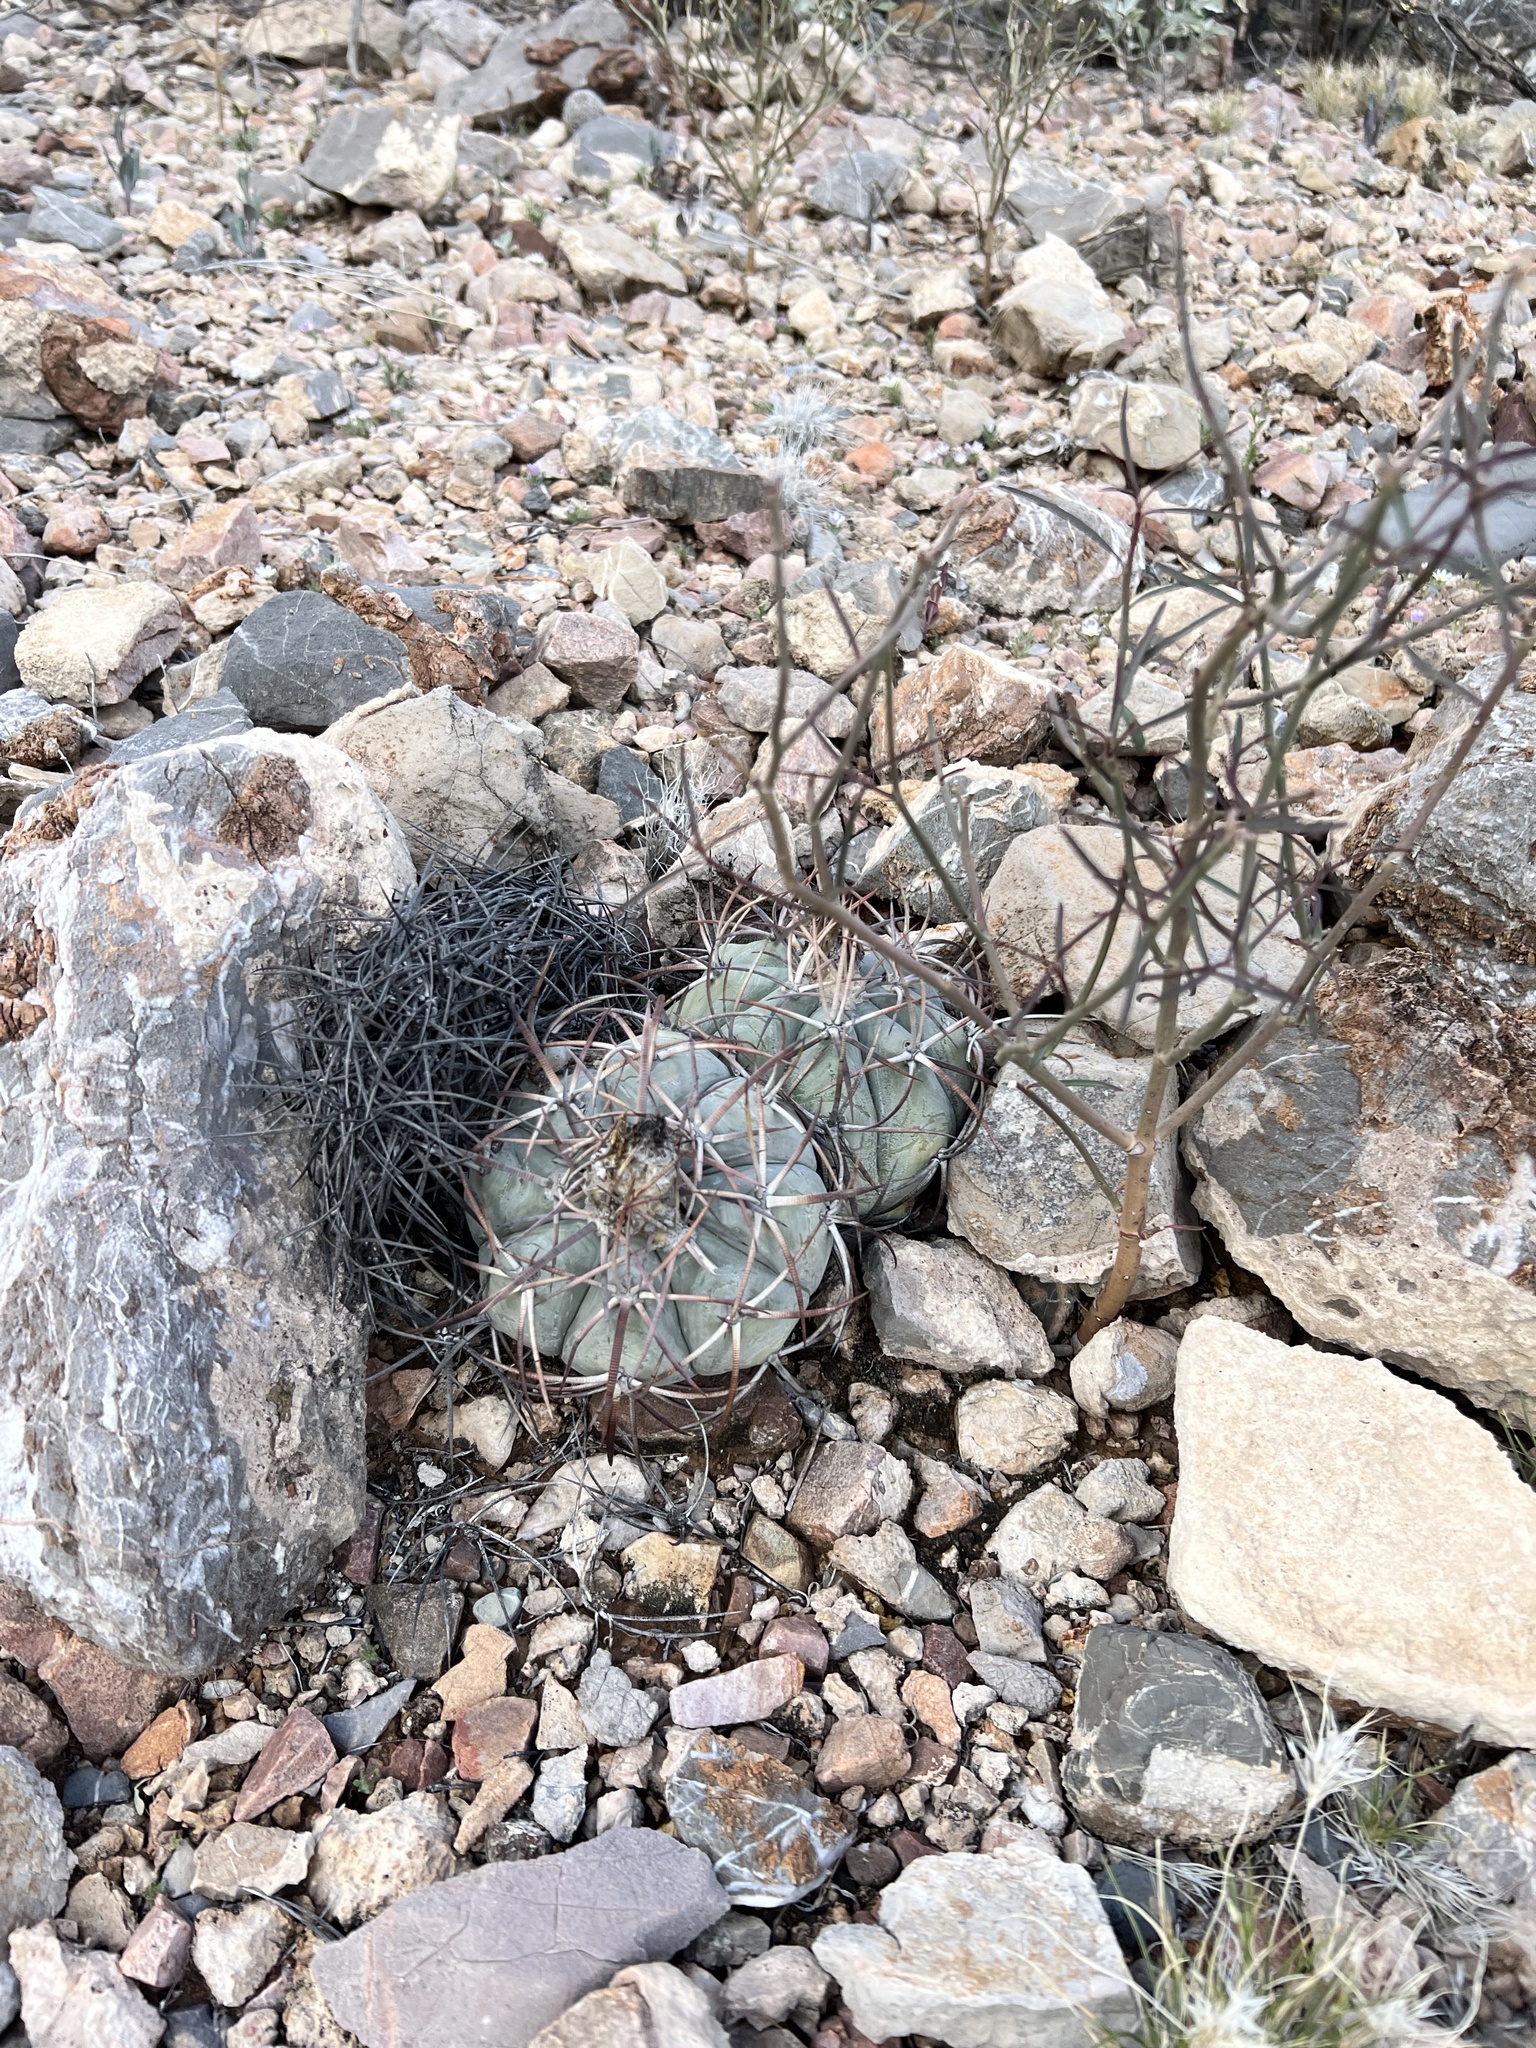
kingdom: Plantae
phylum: Tracheophyta
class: Magnoliopsida
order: Caryophyllales
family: Cactaceae
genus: Echinocactus
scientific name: Echinocactus horizonthalonius
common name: Devilshead
